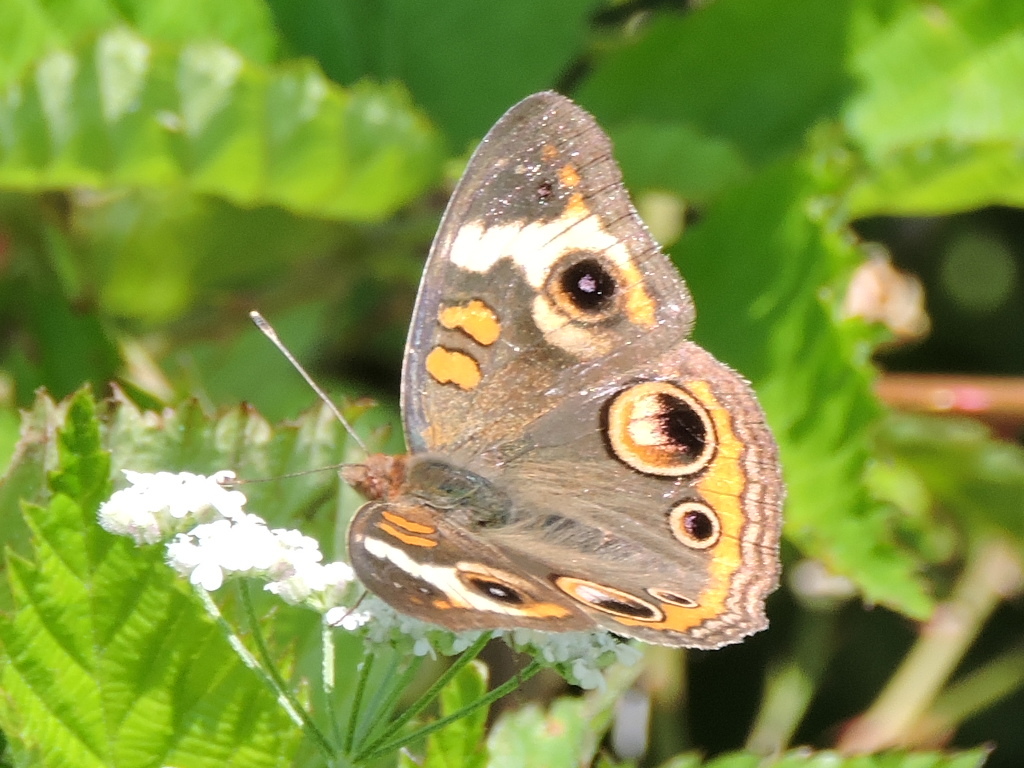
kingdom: Animalia
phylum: Arthropoda
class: Insecta
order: Lepidoptera
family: Nymphalidae
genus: Junonia
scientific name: Junonia coenia
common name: Common buckeye
